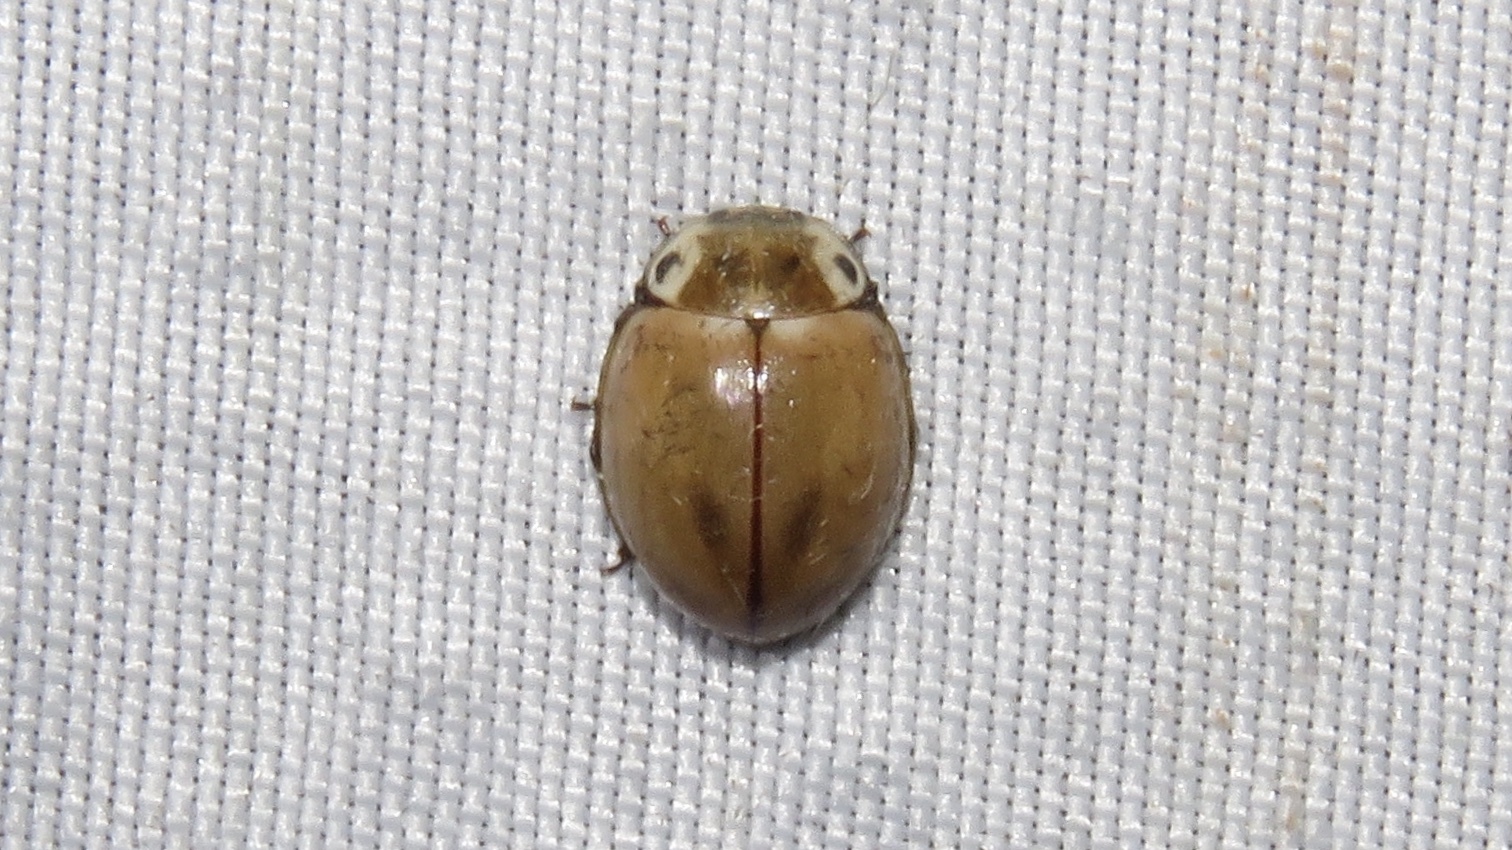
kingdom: Animalia
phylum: Arthropoda
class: Insecta
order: Coleoptera
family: Coccinellidae
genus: Myzia
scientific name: Myzia pullata
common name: Streaked lady beetle
